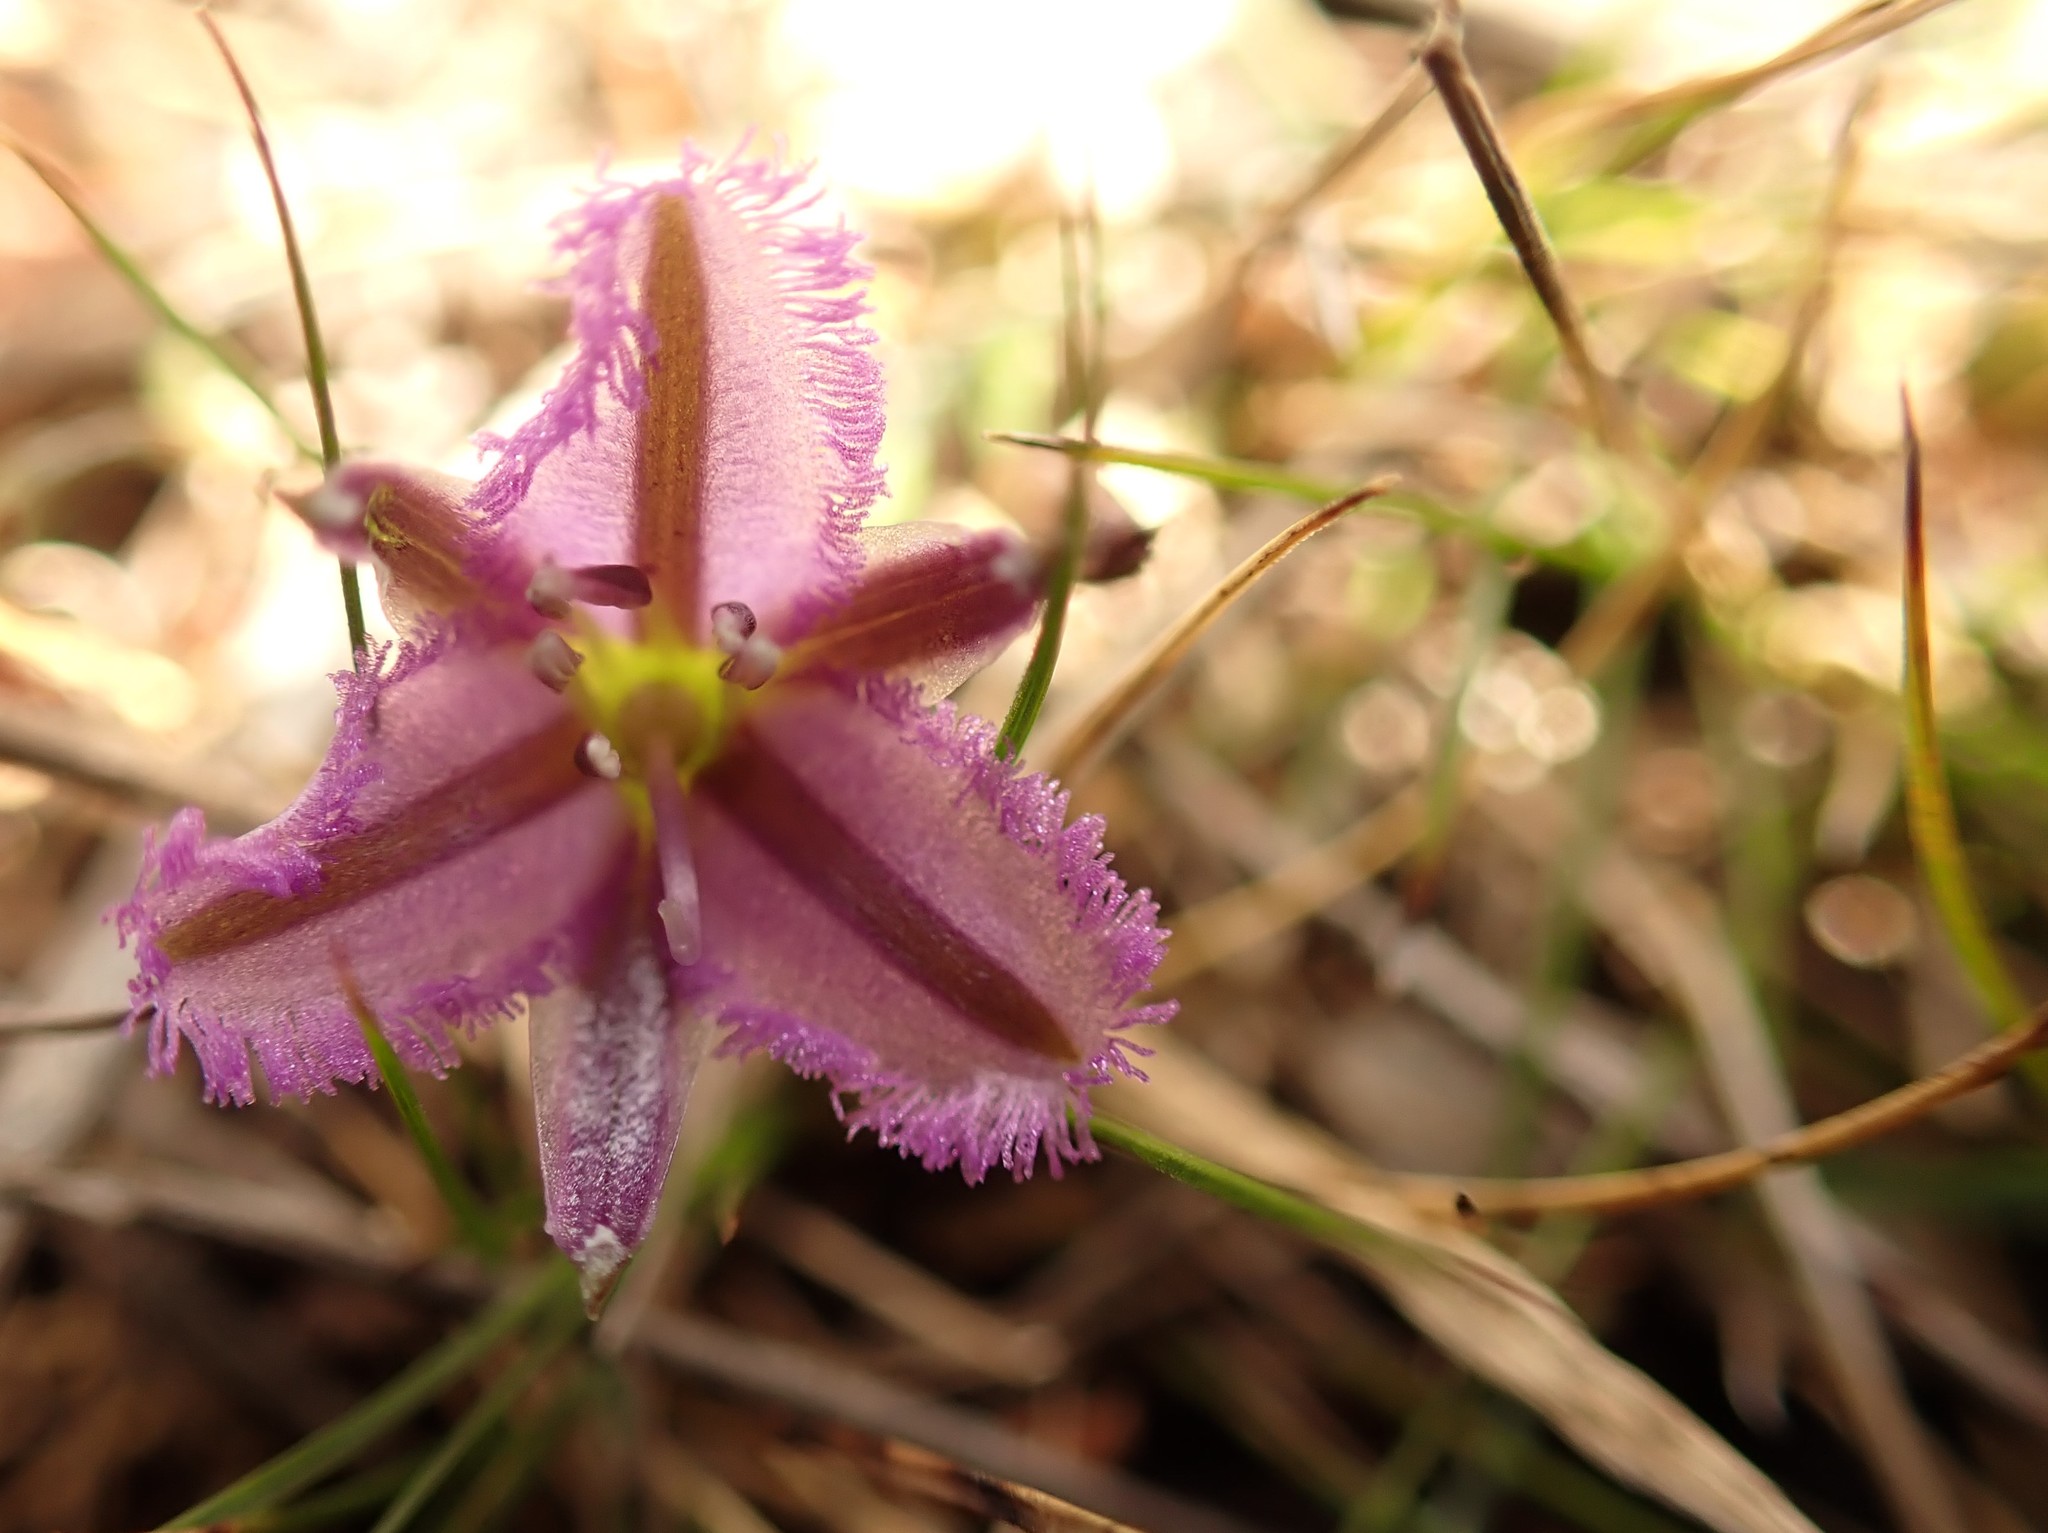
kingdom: Plantae
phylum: Tracheophyta
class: Liliopsida
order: Asparagales
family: Asparagaceae
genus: Thysanotus
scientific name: Thysanotus patersonii
